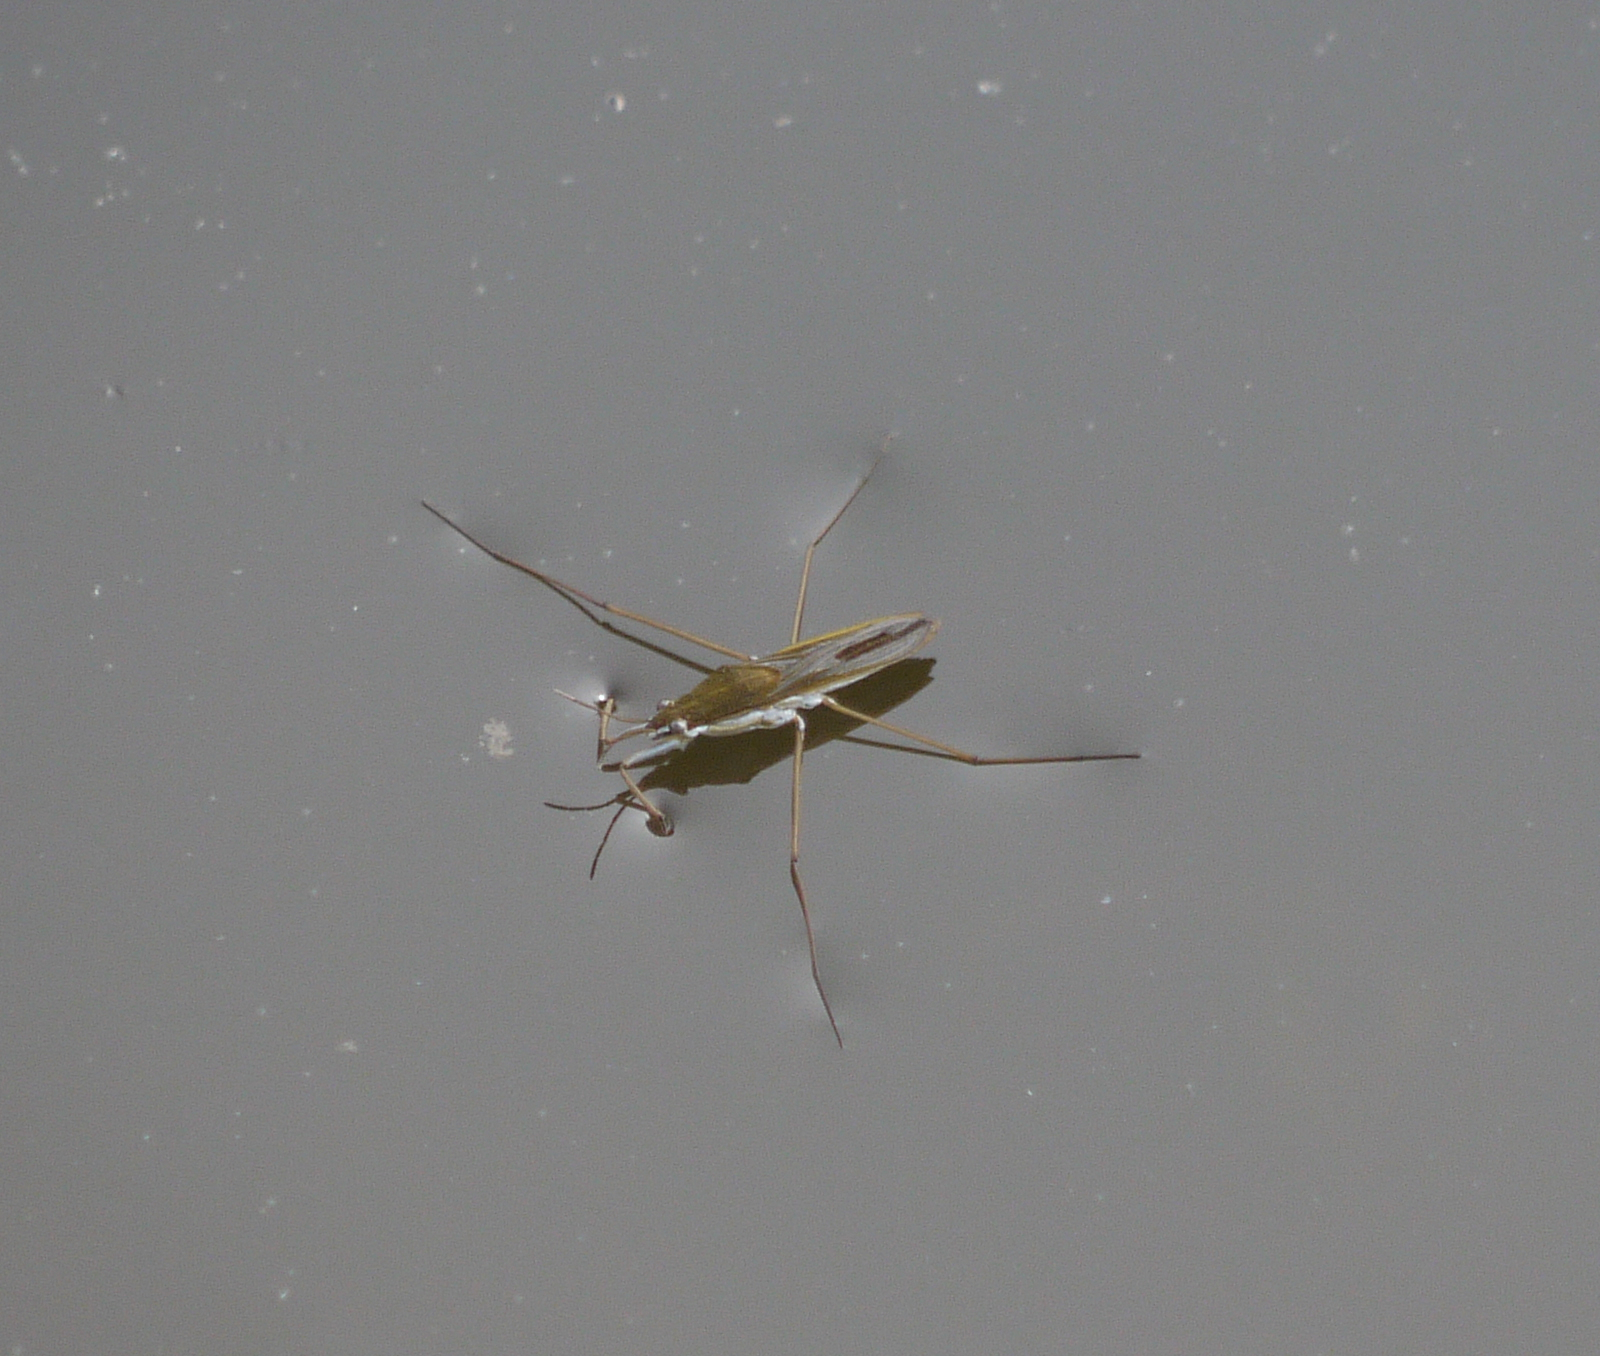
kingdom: Animalia
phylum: Arthropoda
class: Insecta
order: Hemiptera
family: Gerridae
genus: Gerris
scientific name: Gerris
